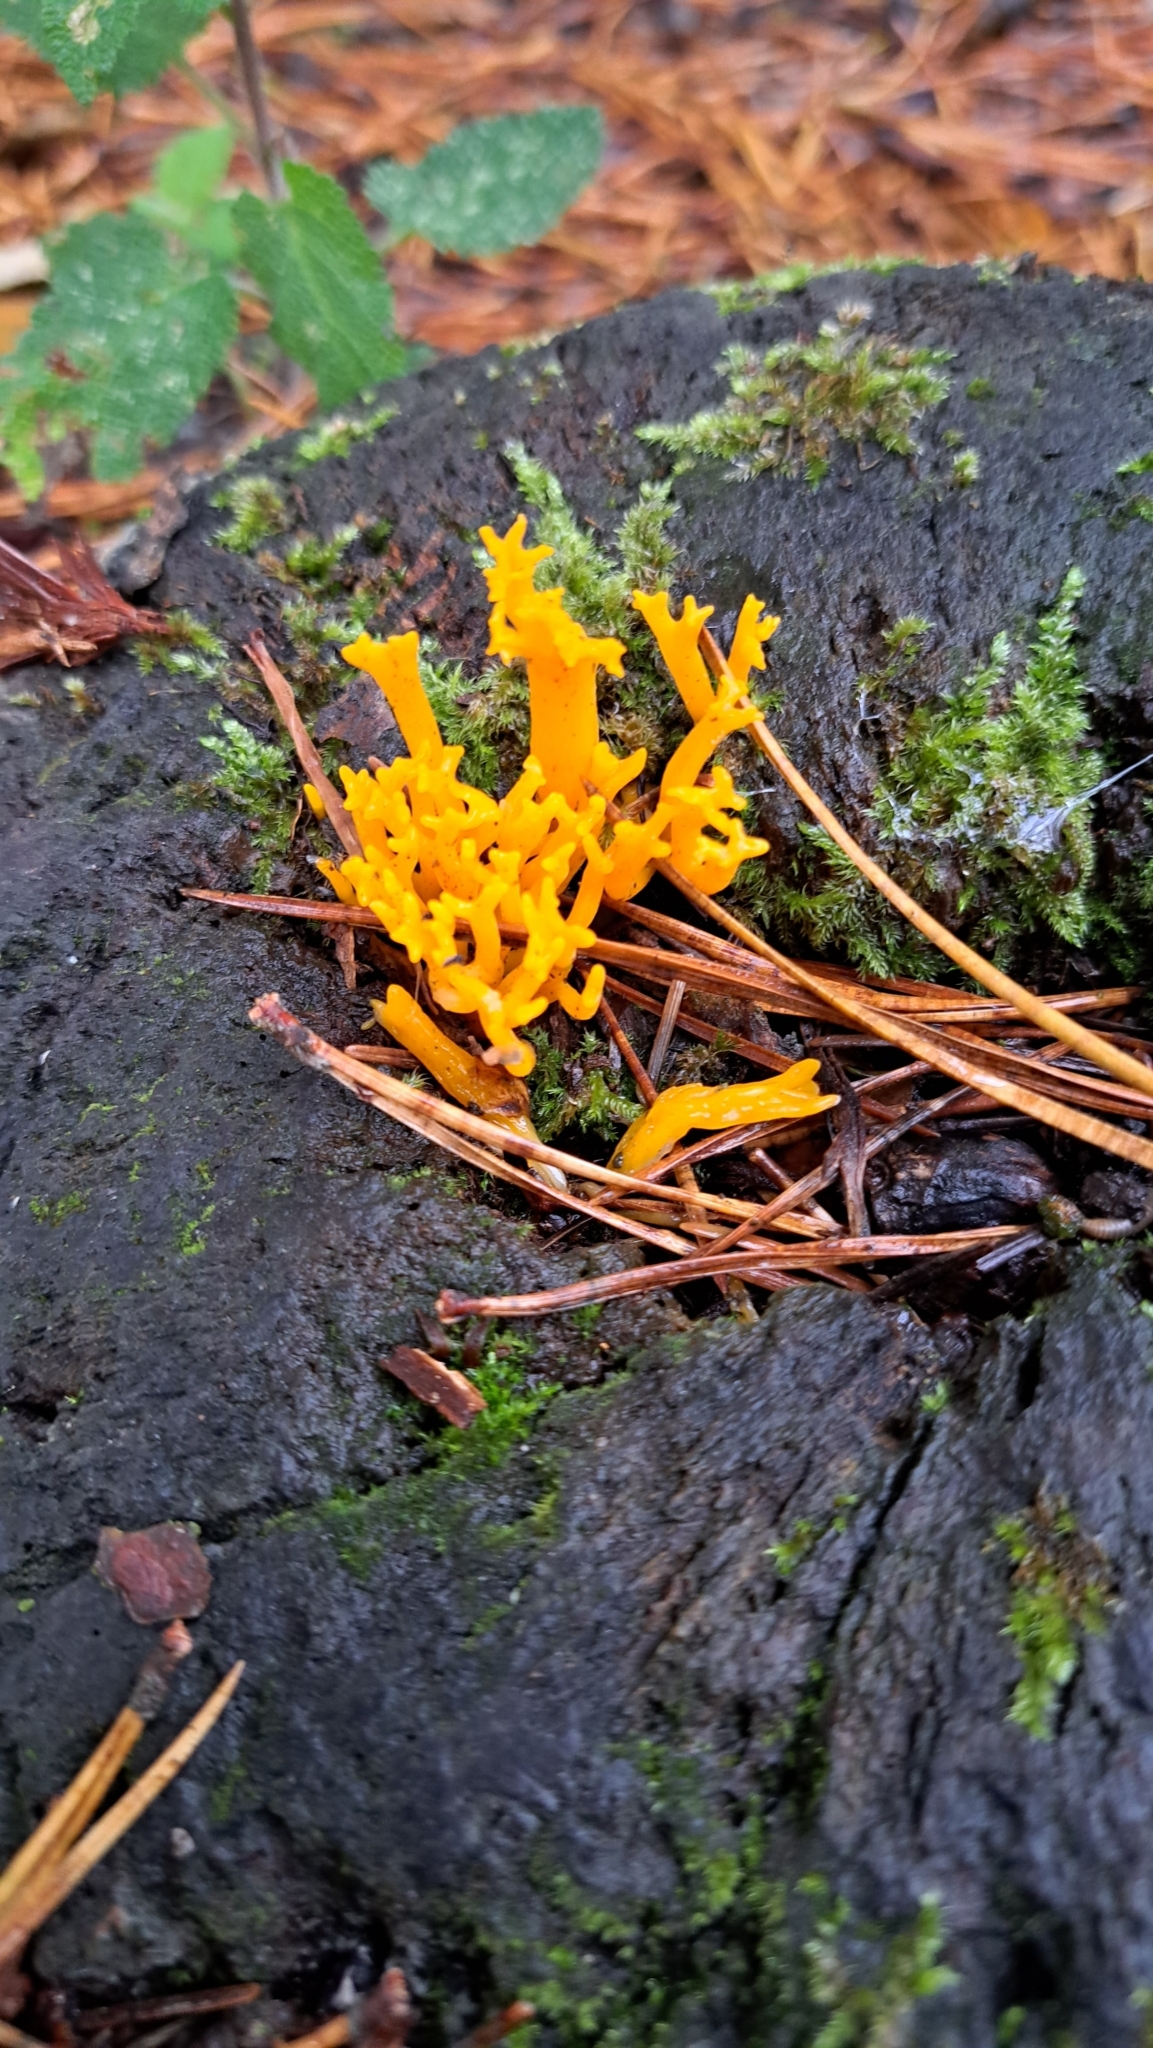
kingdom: Fungi
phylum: Basidiomycota
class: Dacrymycetes
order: Dacrymycetales
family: Dacrymycetaceae
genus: Calocera
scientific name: Calocera viscosa
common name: Yellow stagshorn
